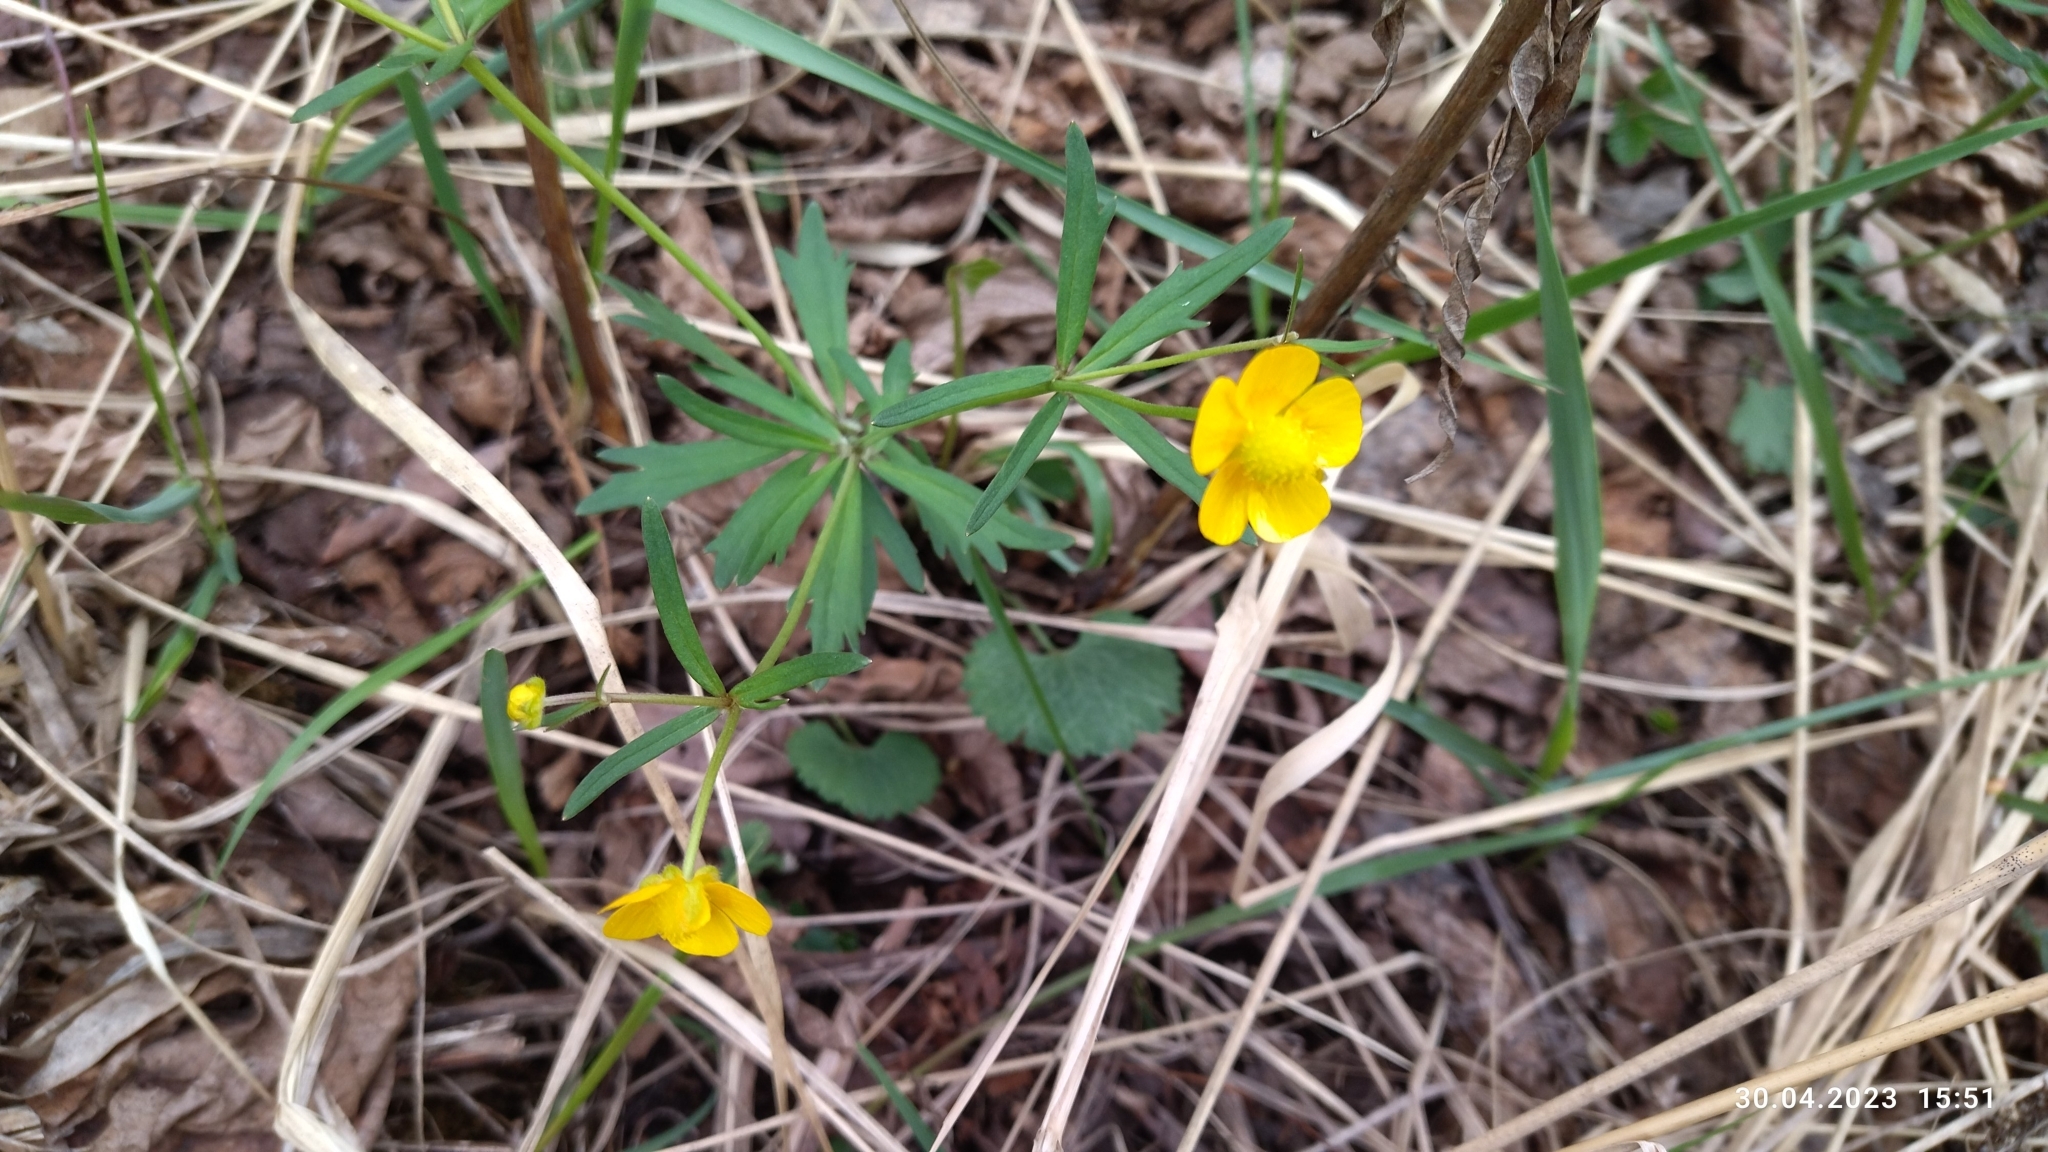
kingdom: Plantae
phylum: Tracheophyta
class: Magnoliopsida
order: Ranunculales
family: Ranunculaceae
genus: Ranunculus
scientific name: Ranunculus cassubicus
